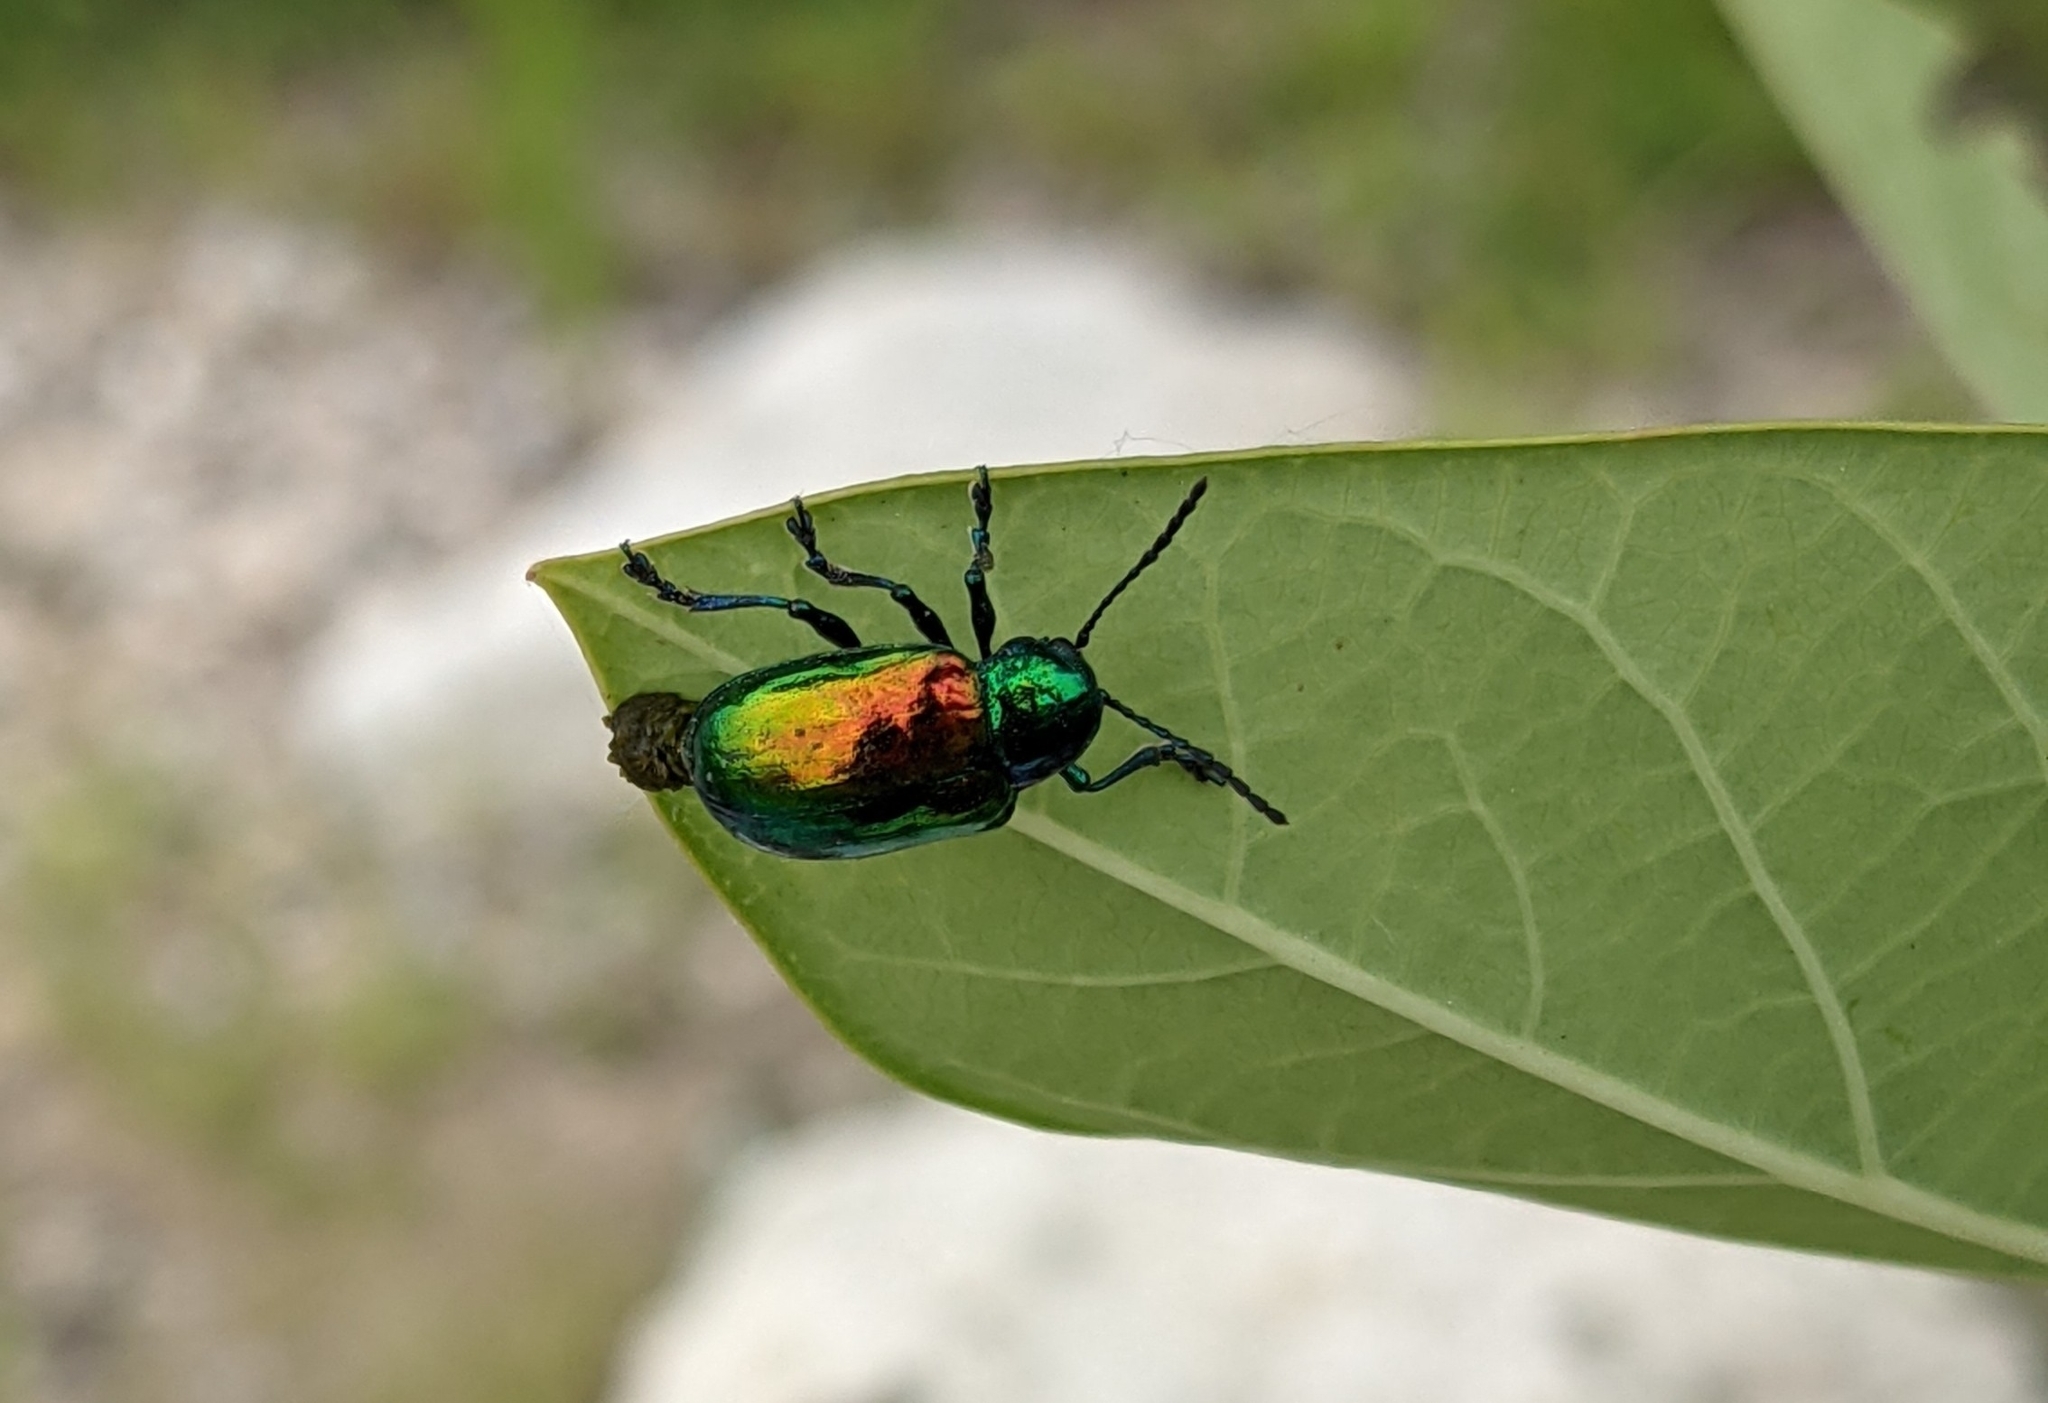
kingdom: Animalia
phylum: Arthropoda
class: Insecta
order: Coleoptera
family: Chrysomelidae
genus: Chrysochus
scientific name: Chrysochus auratus
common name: Dogbane leaf beetle
